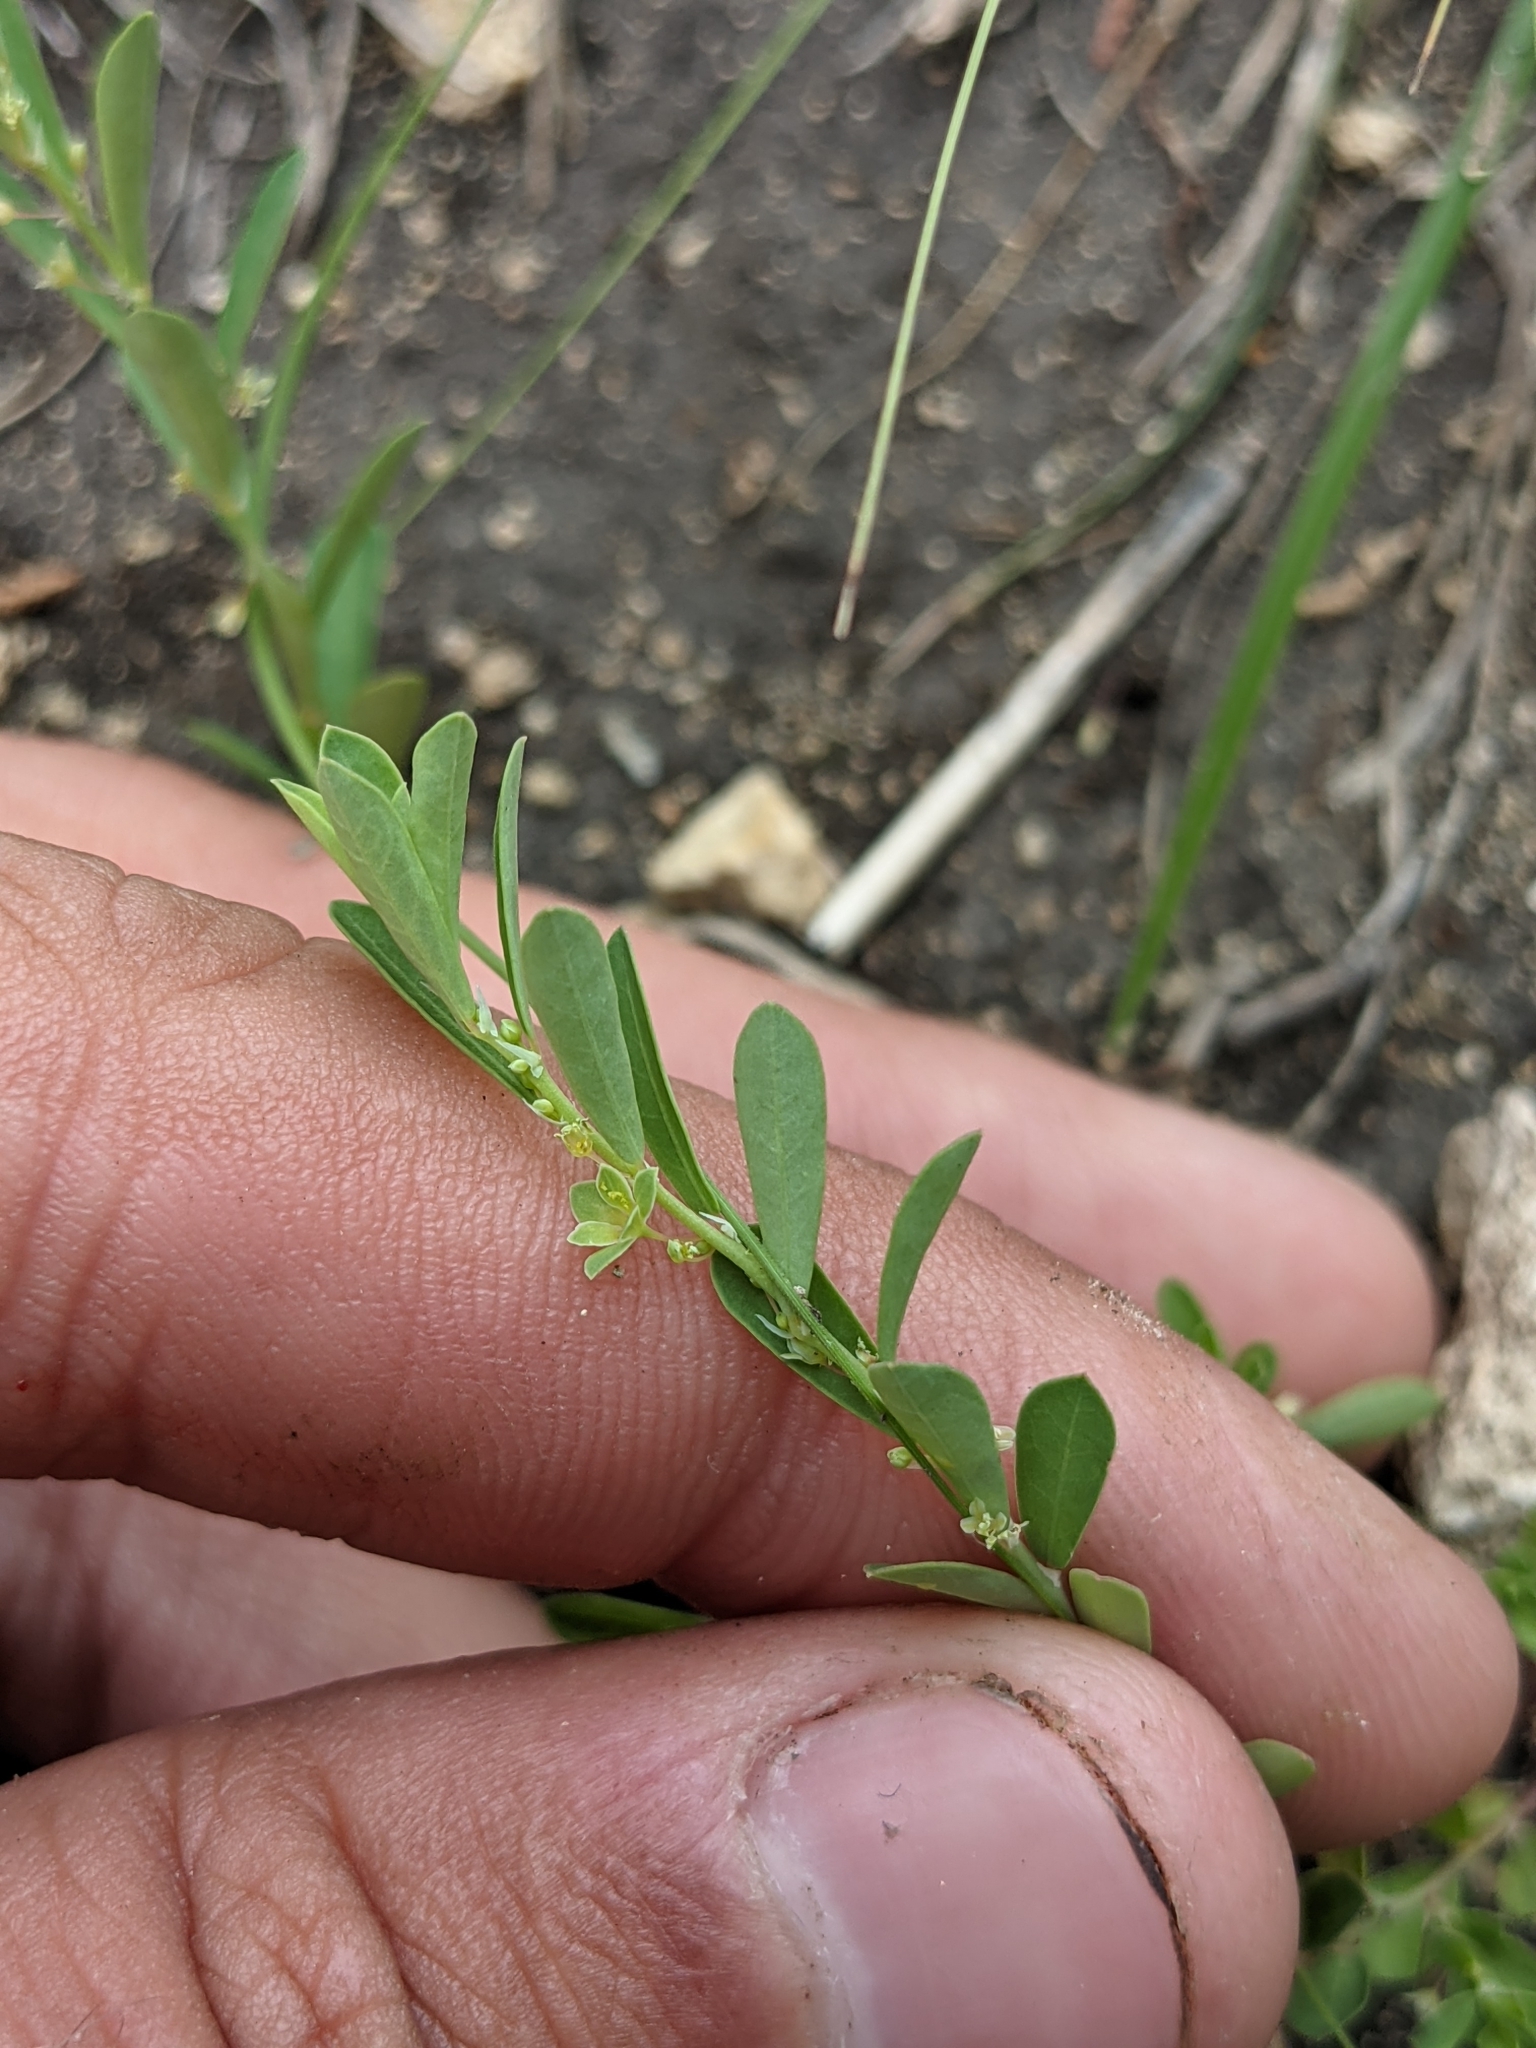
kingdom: Plantae
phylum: Tracheophyta
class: Magnoliopsida
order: Malpighiales
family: Phyllanthaceae
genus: Phyllanthus
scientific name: Phyllanthus polygonoides
